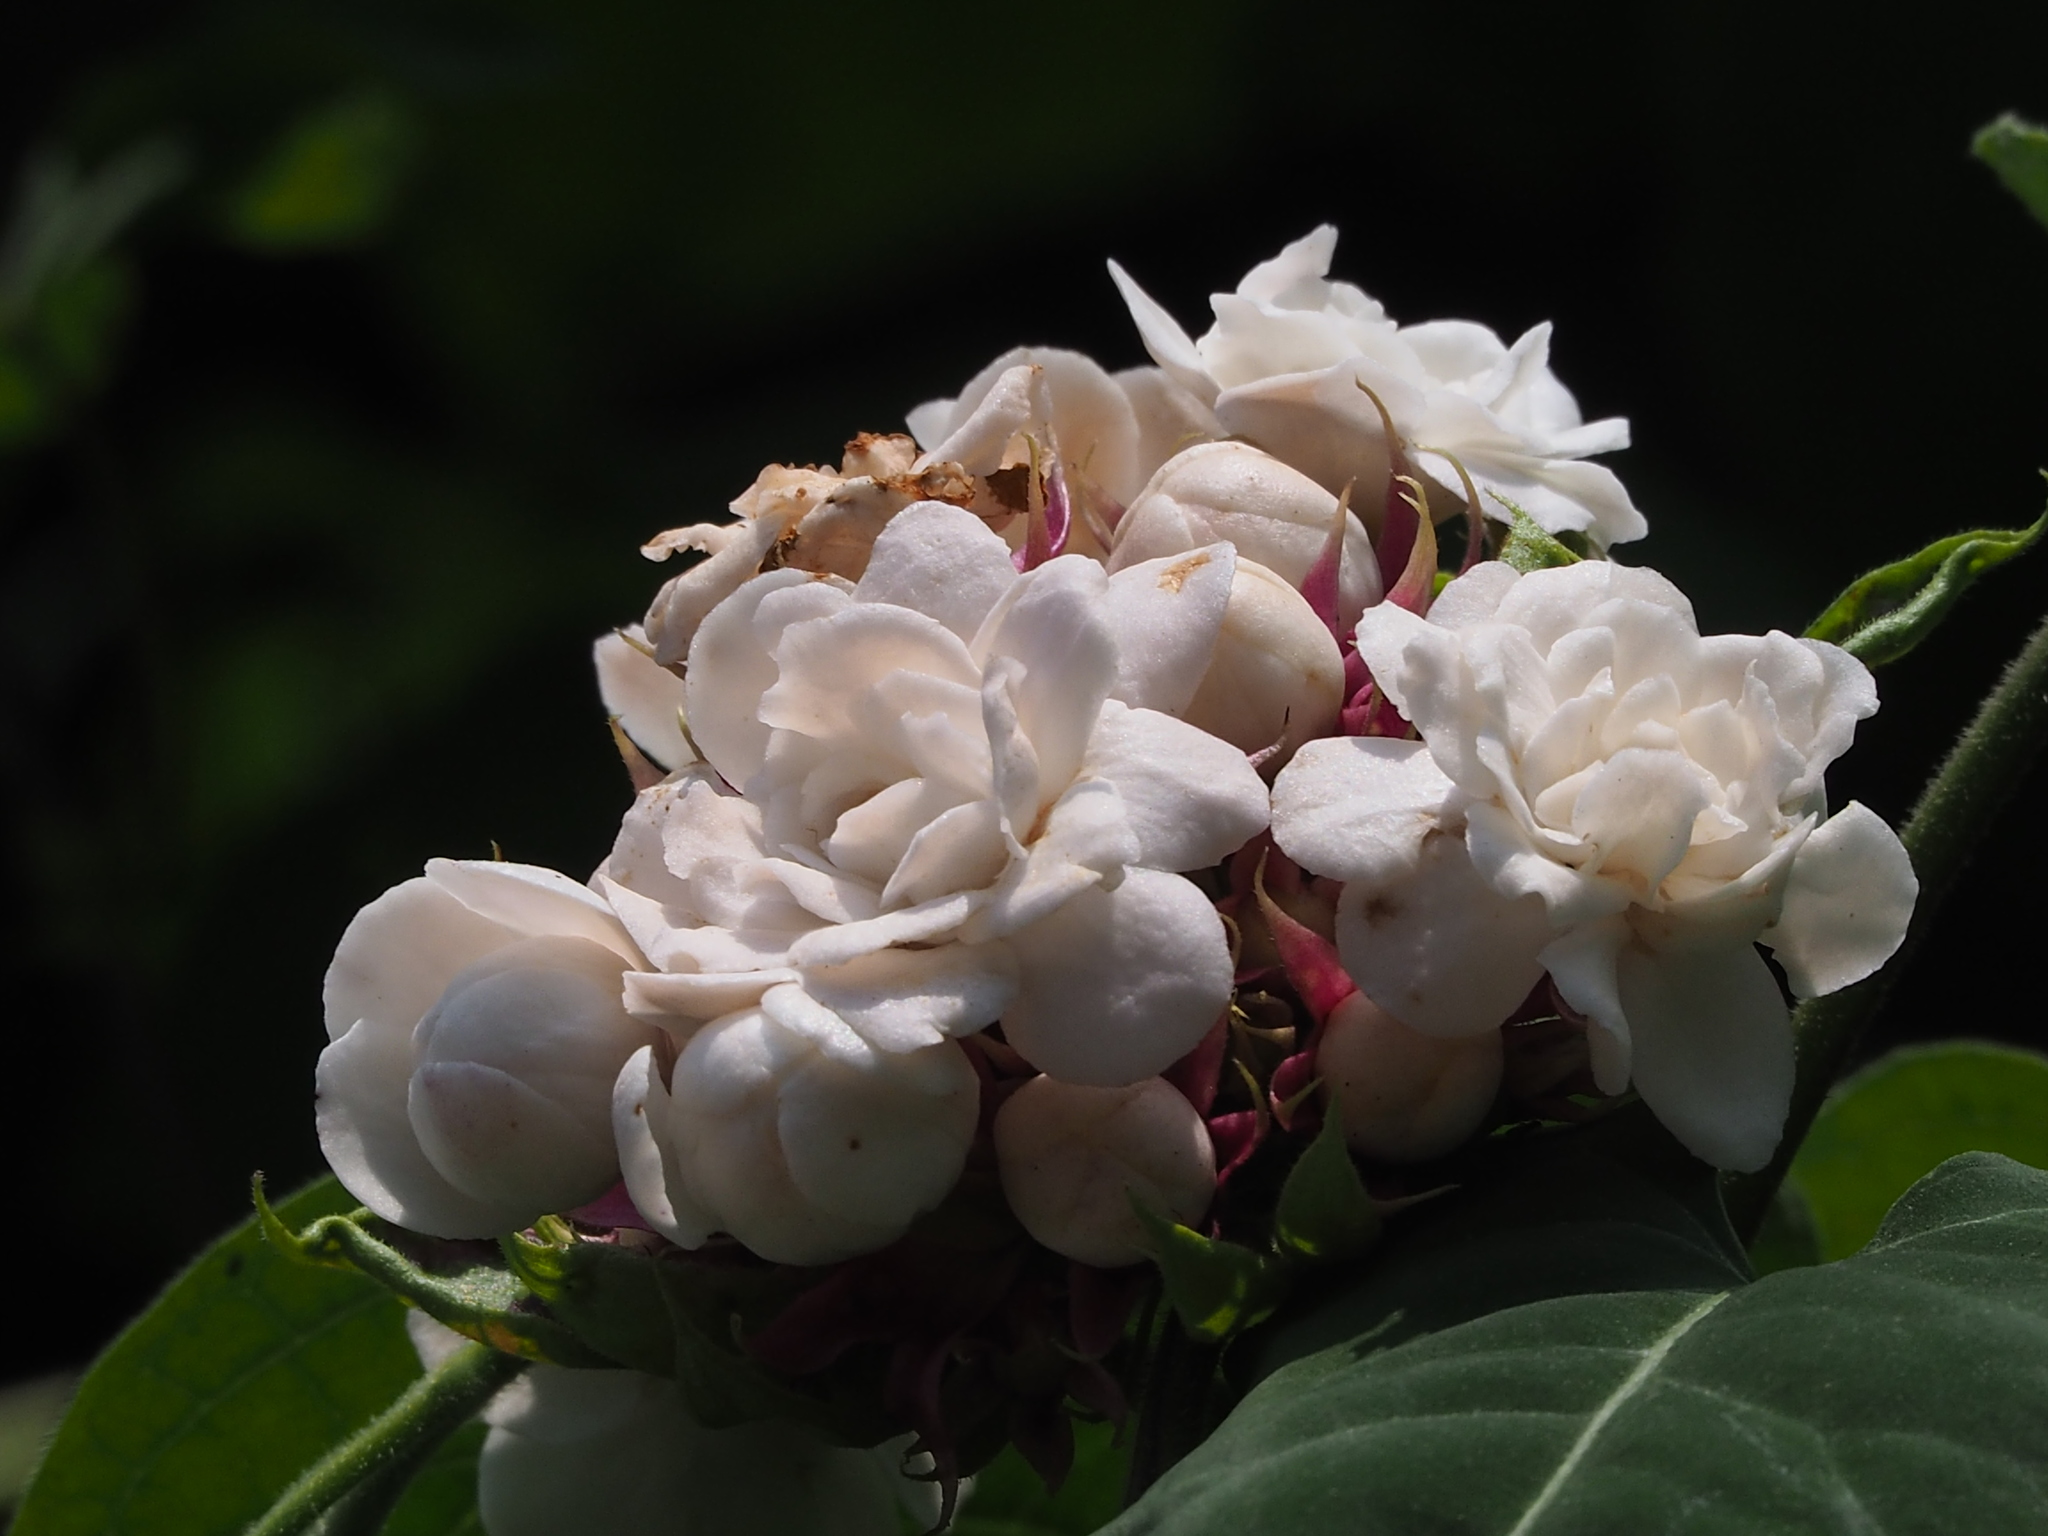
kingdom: Plantae
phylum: Tracheophyta
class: Magnoliopsida
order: Lamiales
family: Lamiaceae
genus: Clerodendrum
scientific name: Clerodendrum chinense
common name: Stickbush
